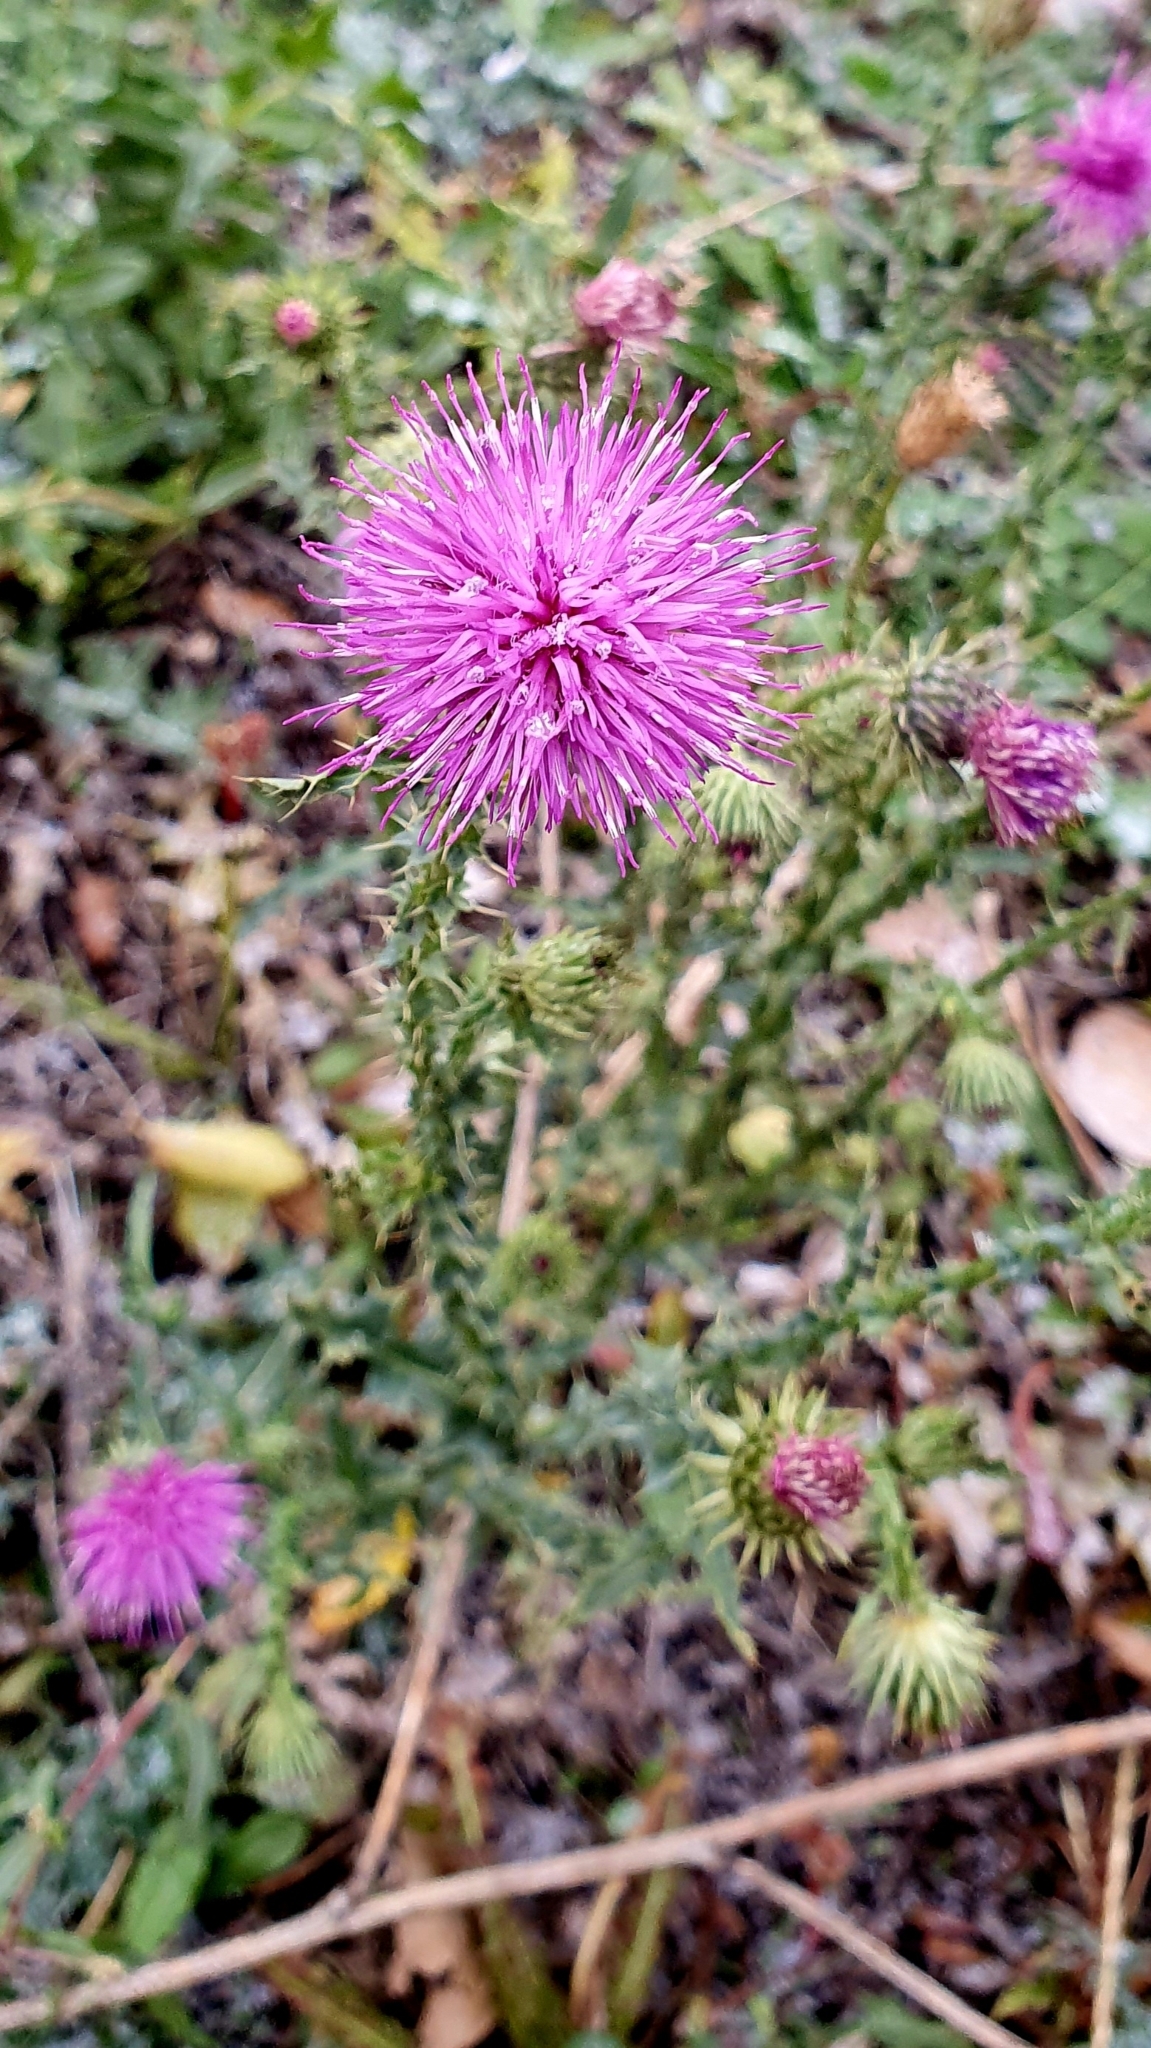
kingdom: Plantae
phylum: Tracheophyta
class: Magnoliopsida
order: Asterales
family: Asteraceae
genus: Carduus
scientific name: Carduus acanthoides
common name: Plumeless thistle
